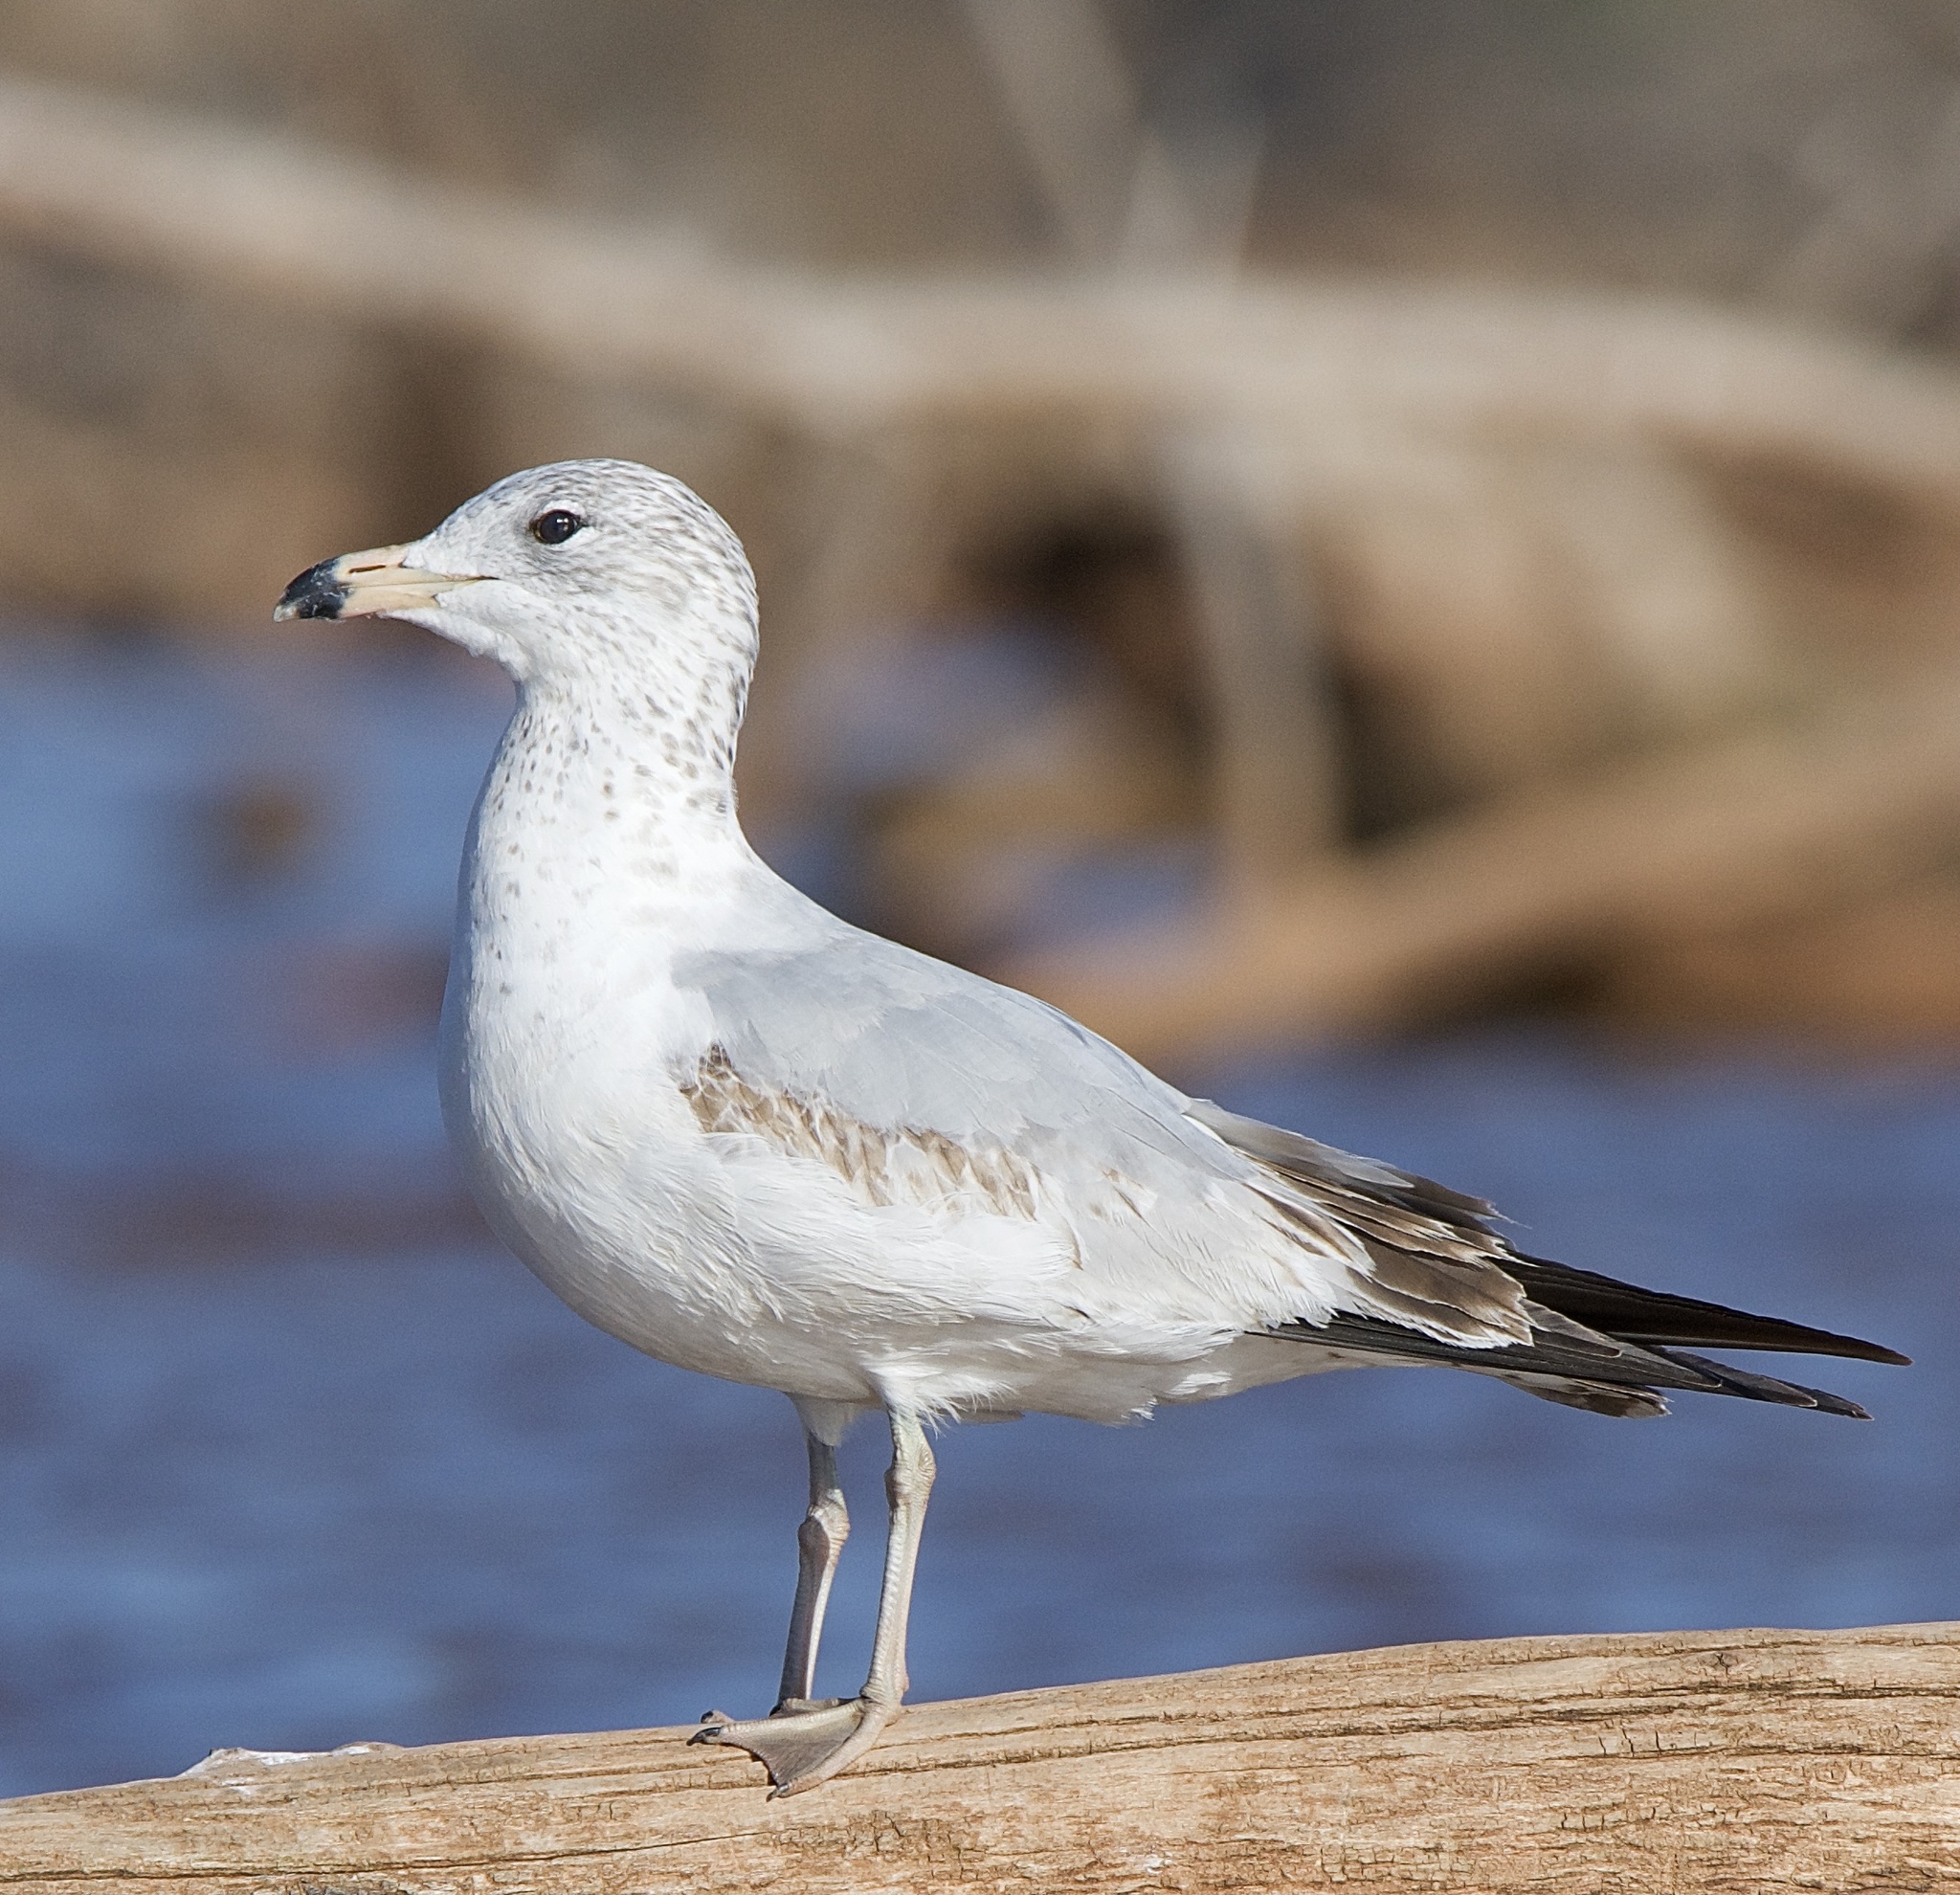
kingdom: Animalia
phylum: Chordata
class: Aves
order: Charadriiformes
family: Laridae
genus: Larus
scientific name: Larus delawarensis
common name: Ring-billed gull
